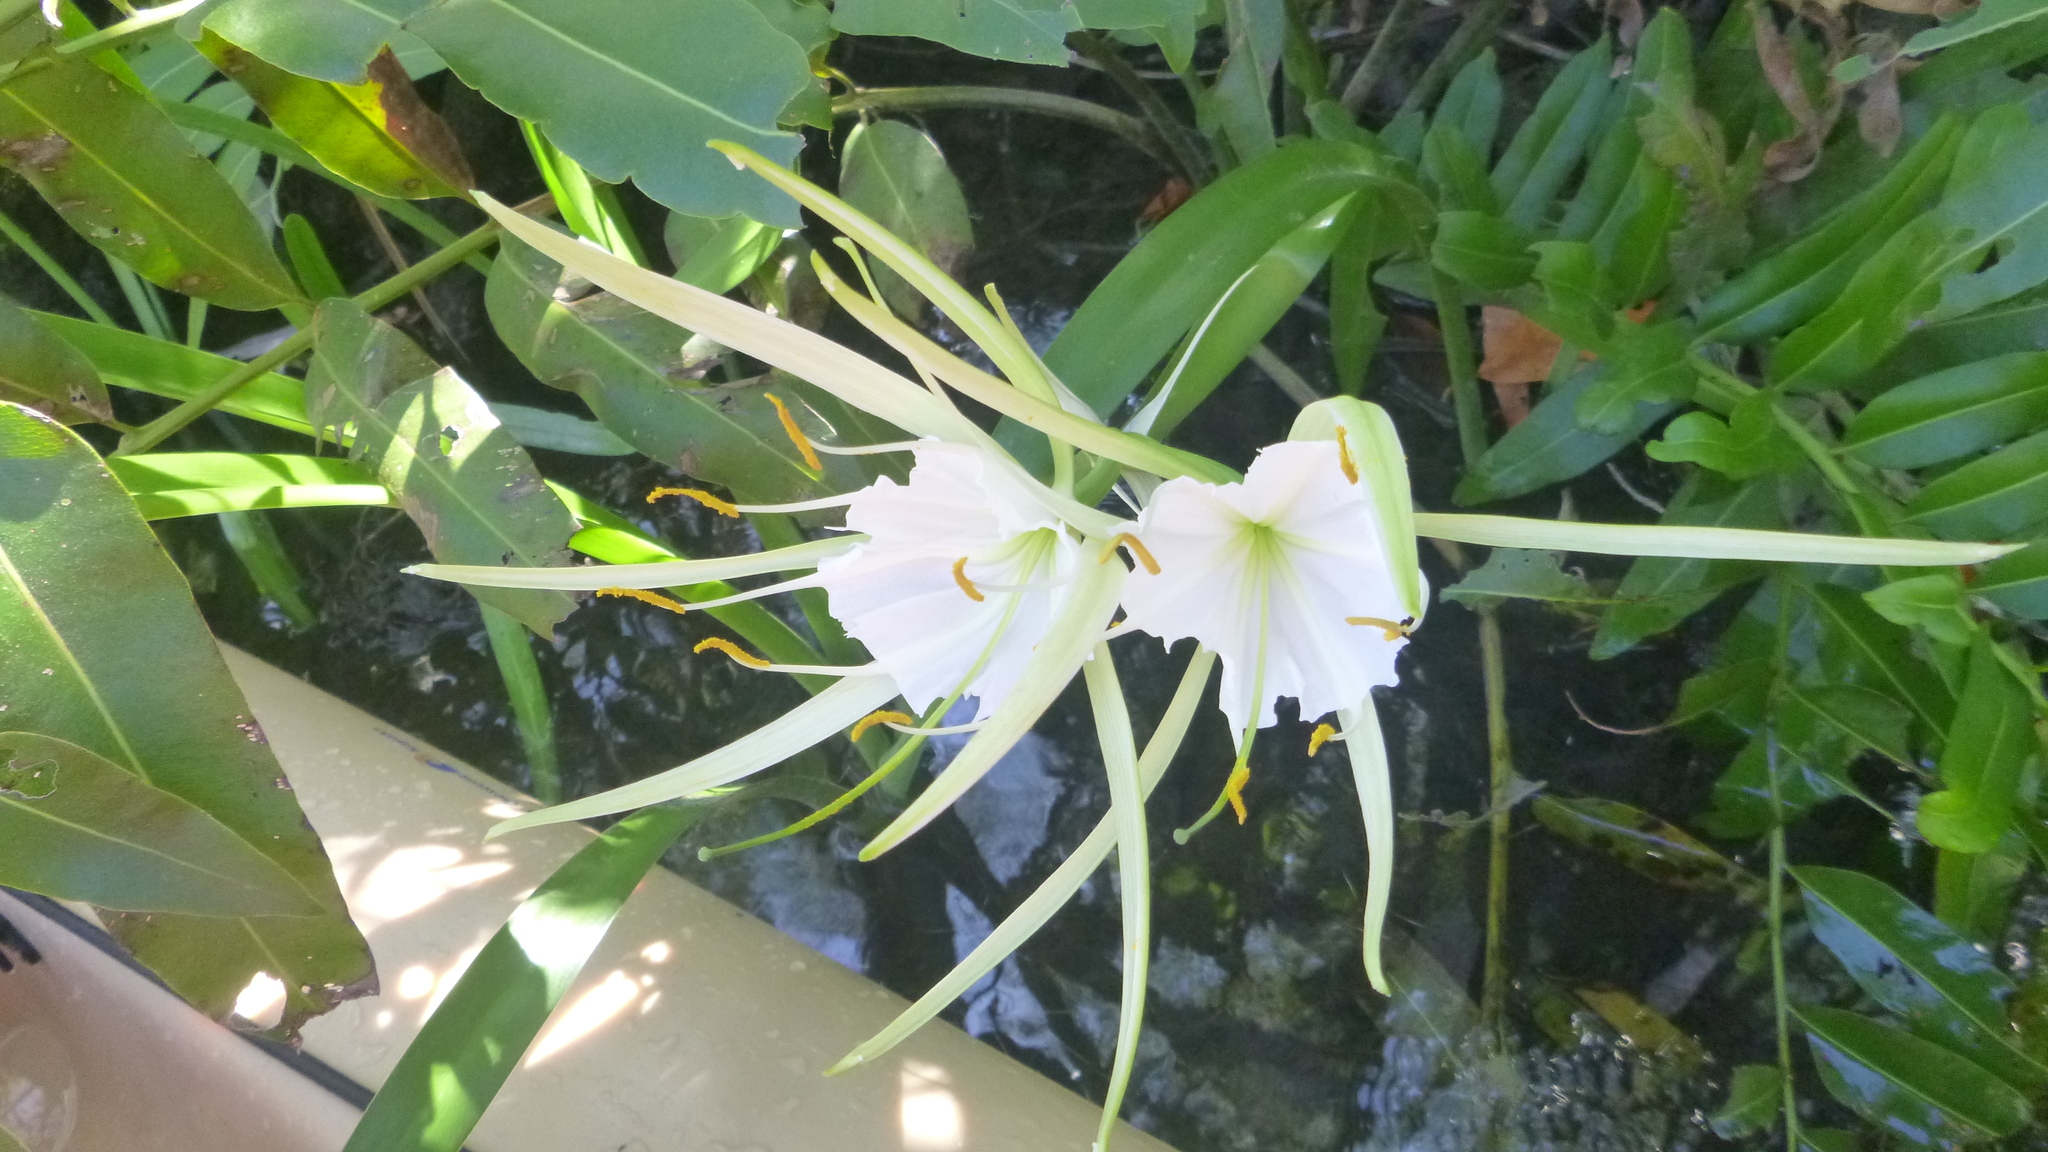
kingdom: Plantae
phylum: Tracheophyta
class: Liliopsida
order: Asparagales
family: Amaryllidaceae
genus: Hymenocallis
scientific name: Hymenocallis rotata
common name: Spring-run spider-lily
